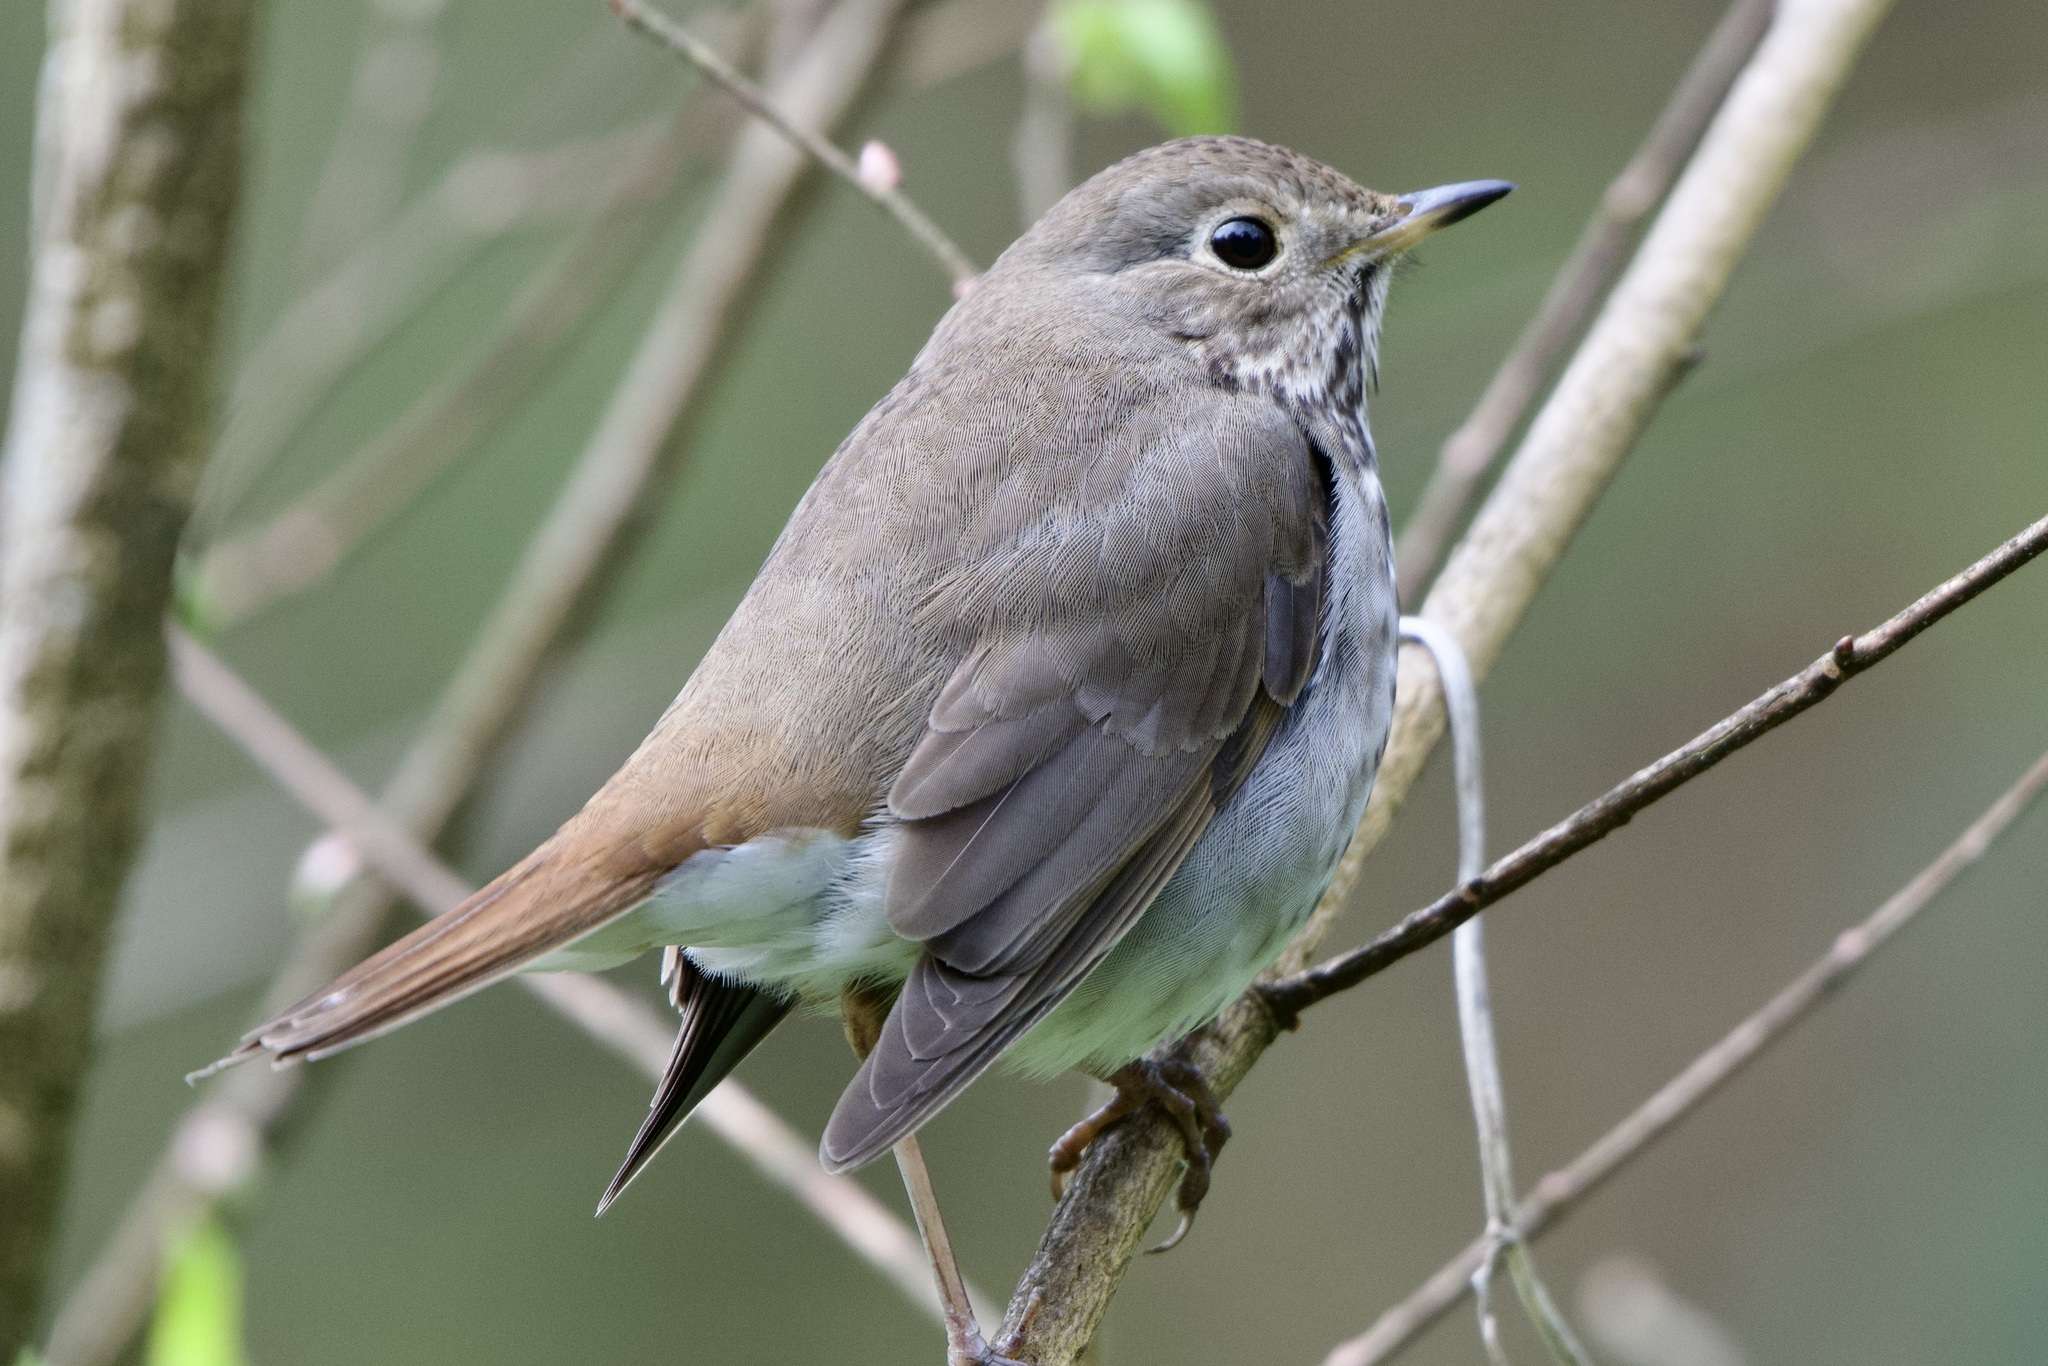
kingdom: Animalia
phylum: Chordata
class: Aves
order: Passeriformes
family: Turdidae
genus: Catharus
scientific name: Catharus guttatus
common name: Hermit thrush
